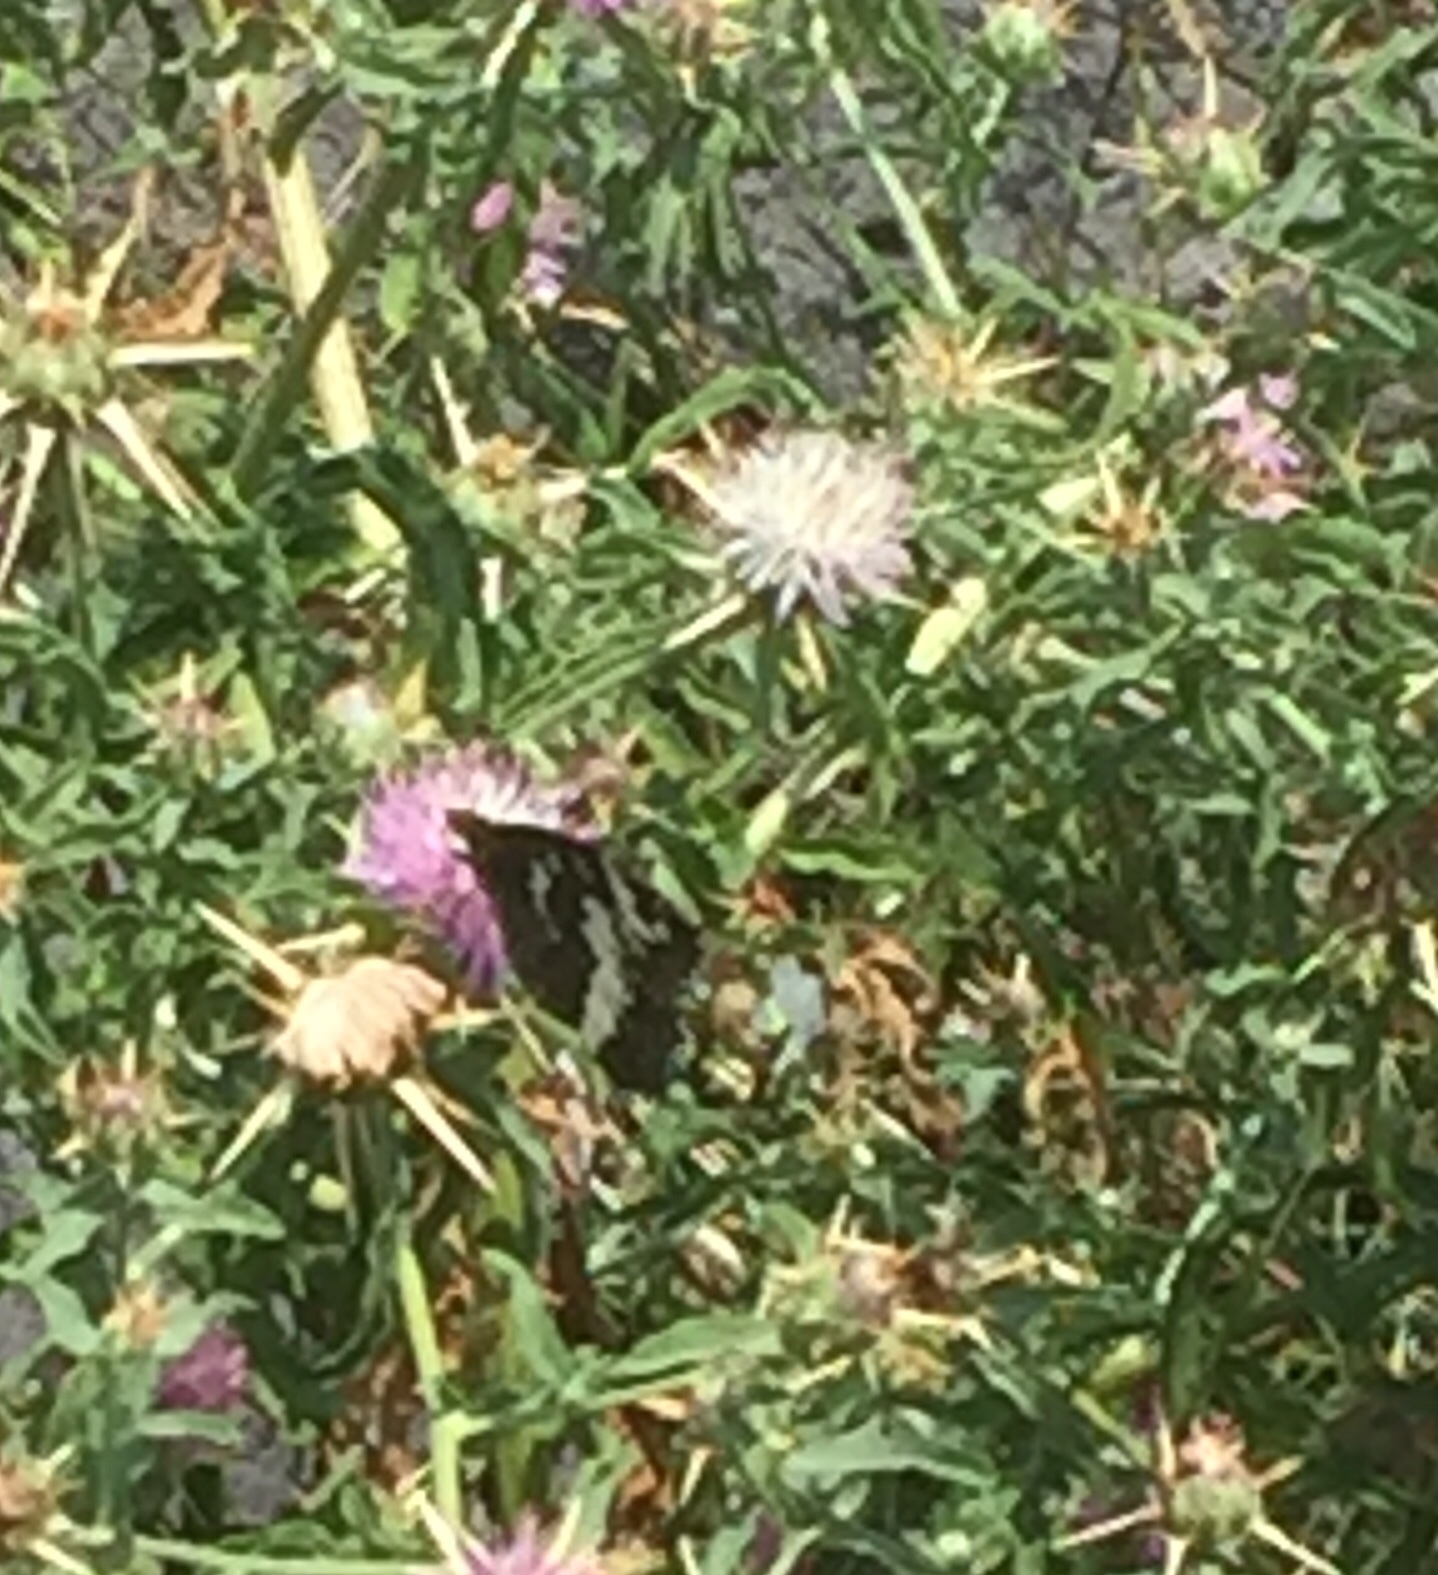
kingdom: Animalia
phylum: Arthropoda
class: Insecta
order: Lepidoptera
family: Lycaenidae
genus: Loweia
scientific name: Loweia tityrus
